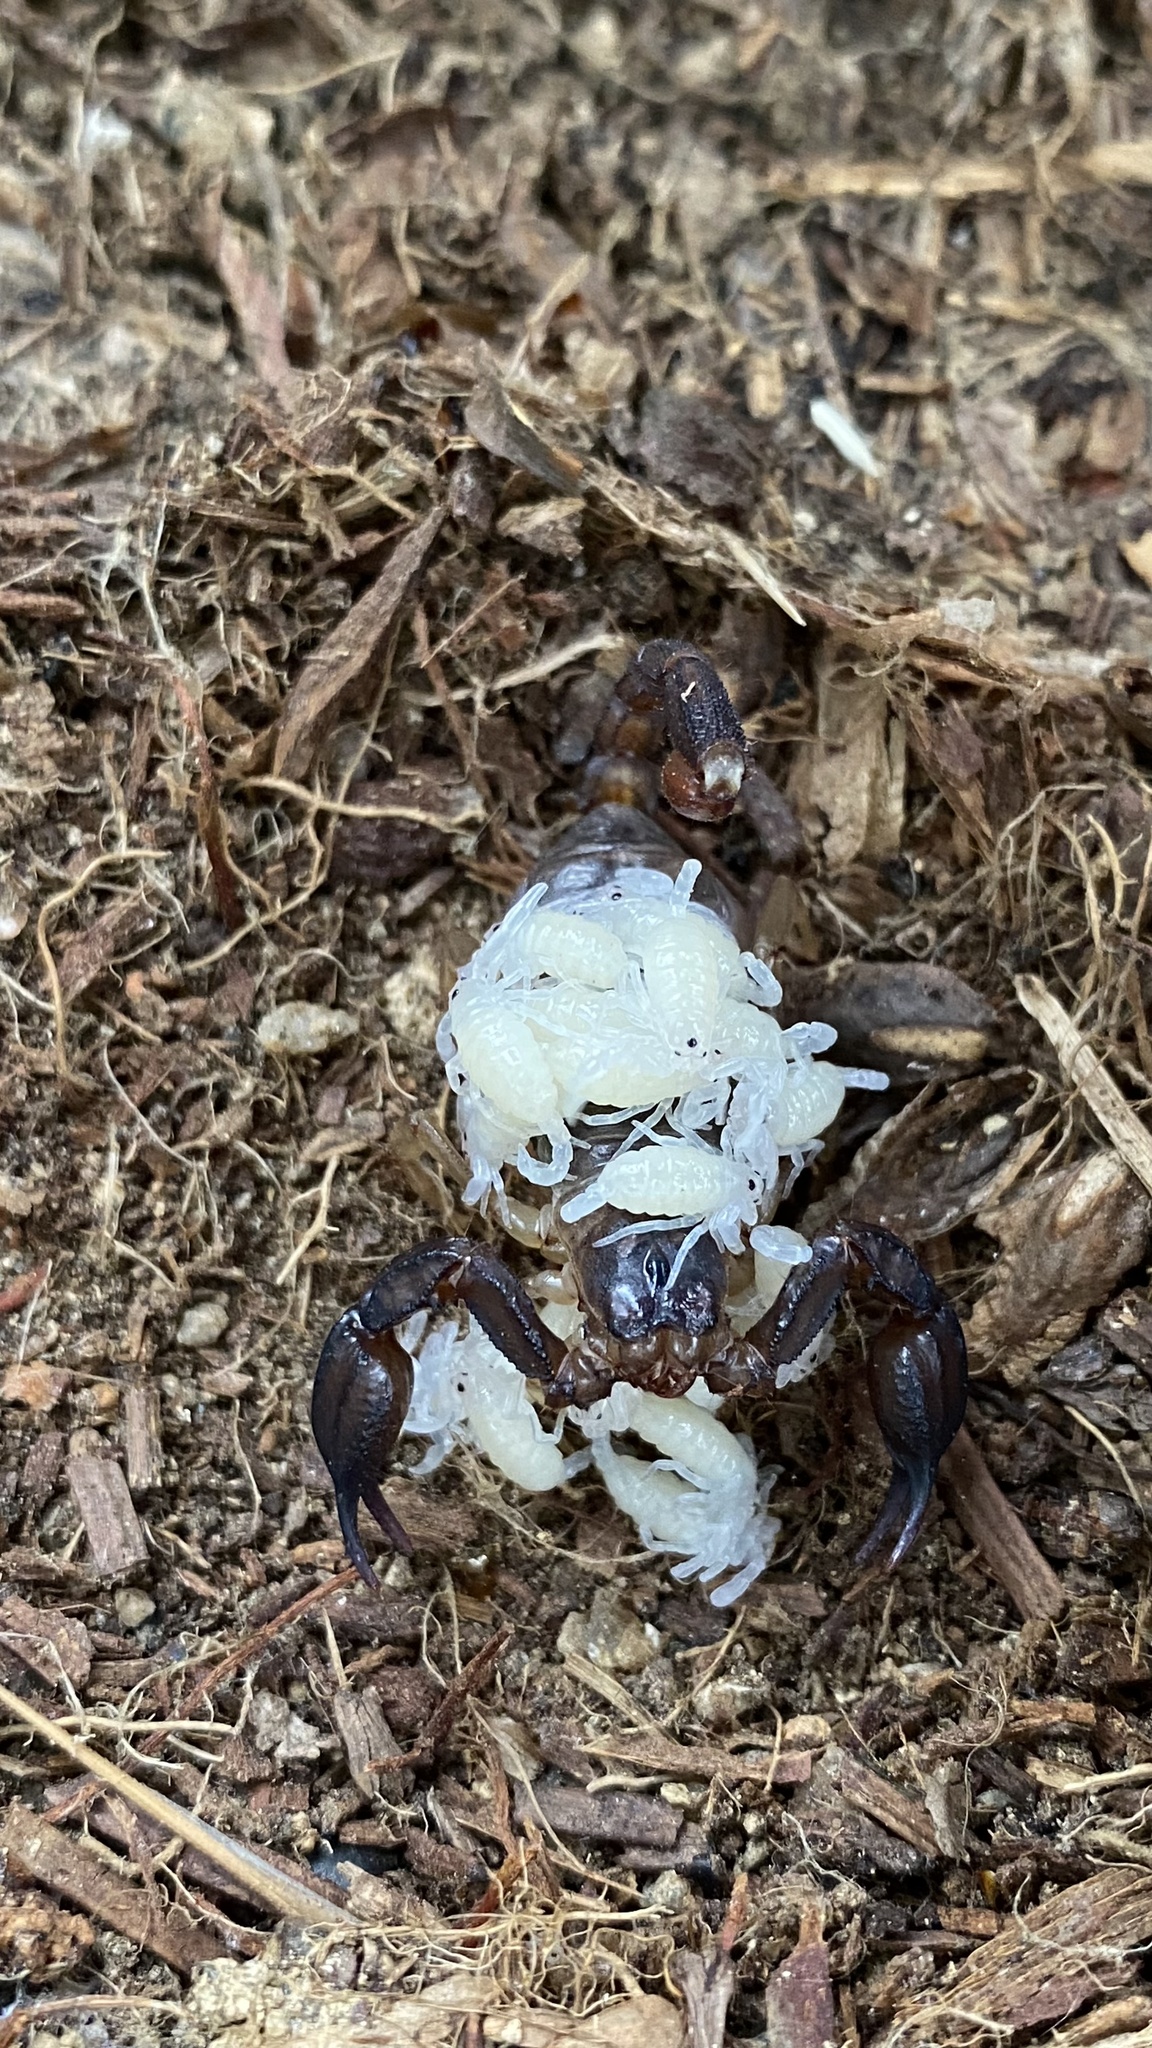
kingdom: Animalia
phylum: Arthropoda
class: Arachnida
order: Scorpiones
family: Chactidae
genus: Uroctonus
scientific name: Uroctonus mordax
